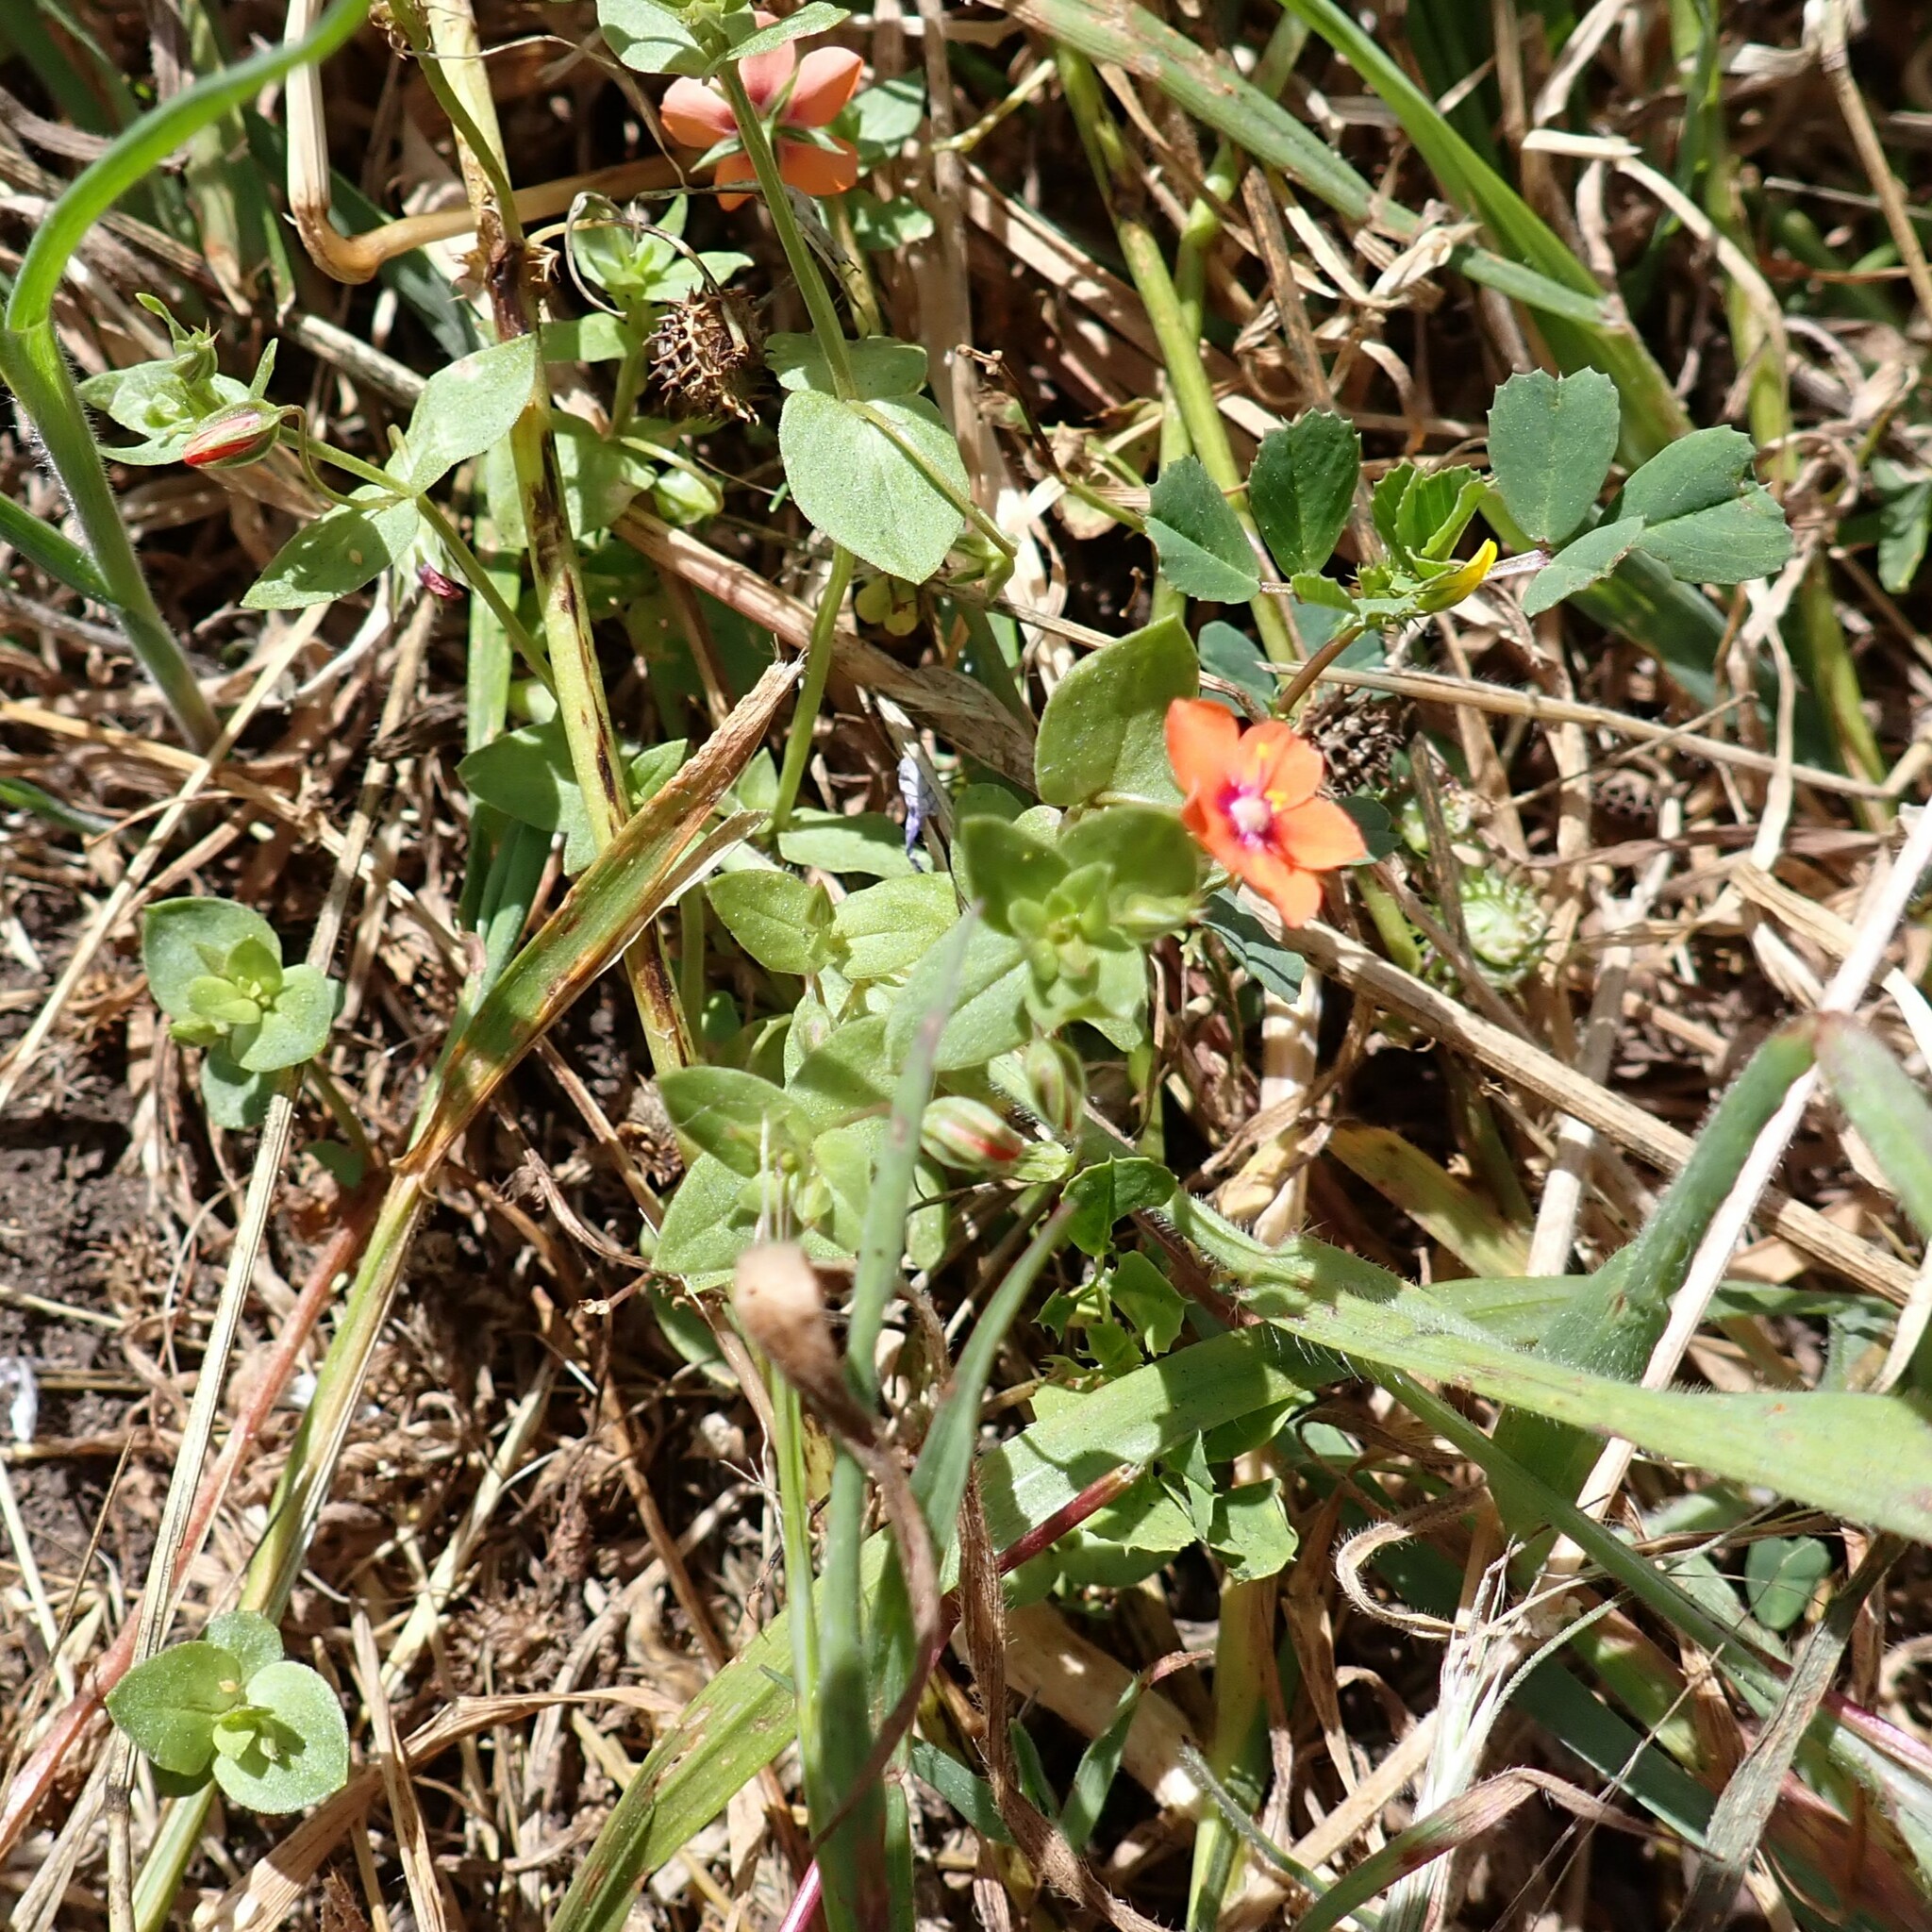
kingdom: Plantae
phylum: Tracheophyta
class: Magnoliopsida
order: Ericales
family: Primulaceae
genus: Lysimachia
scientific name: Lysimachia arvensis
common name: Scarlet pimpernel
